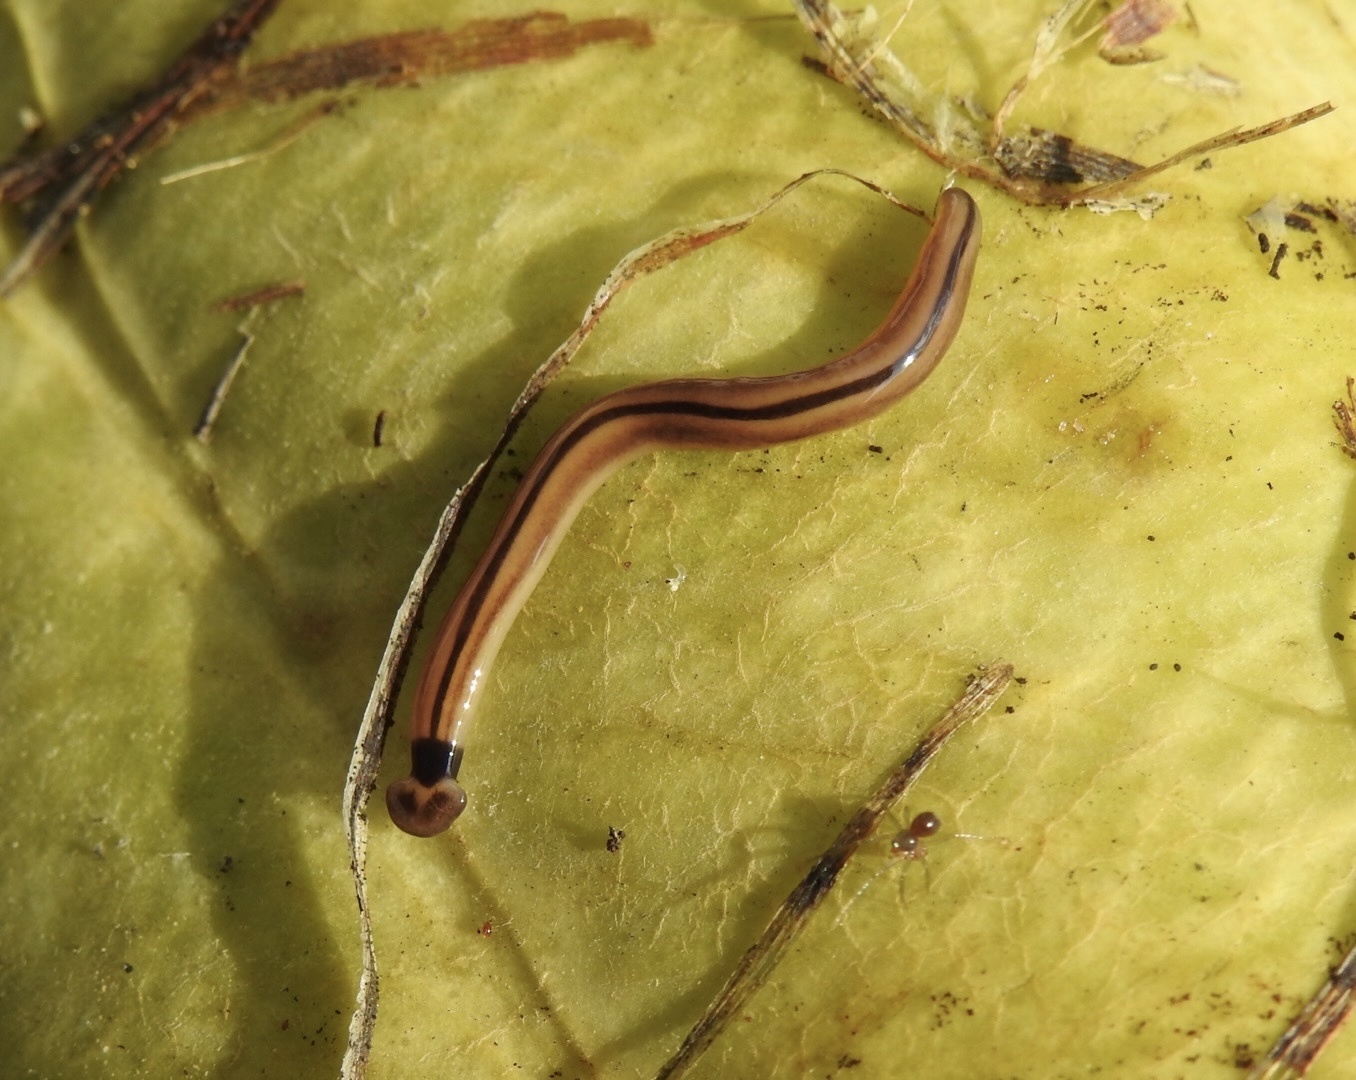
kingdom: Animalia
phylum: Platyhelminthes
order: Tricladida
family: Geoplanidae
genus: Bipalium
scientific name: Bipalium vagum
